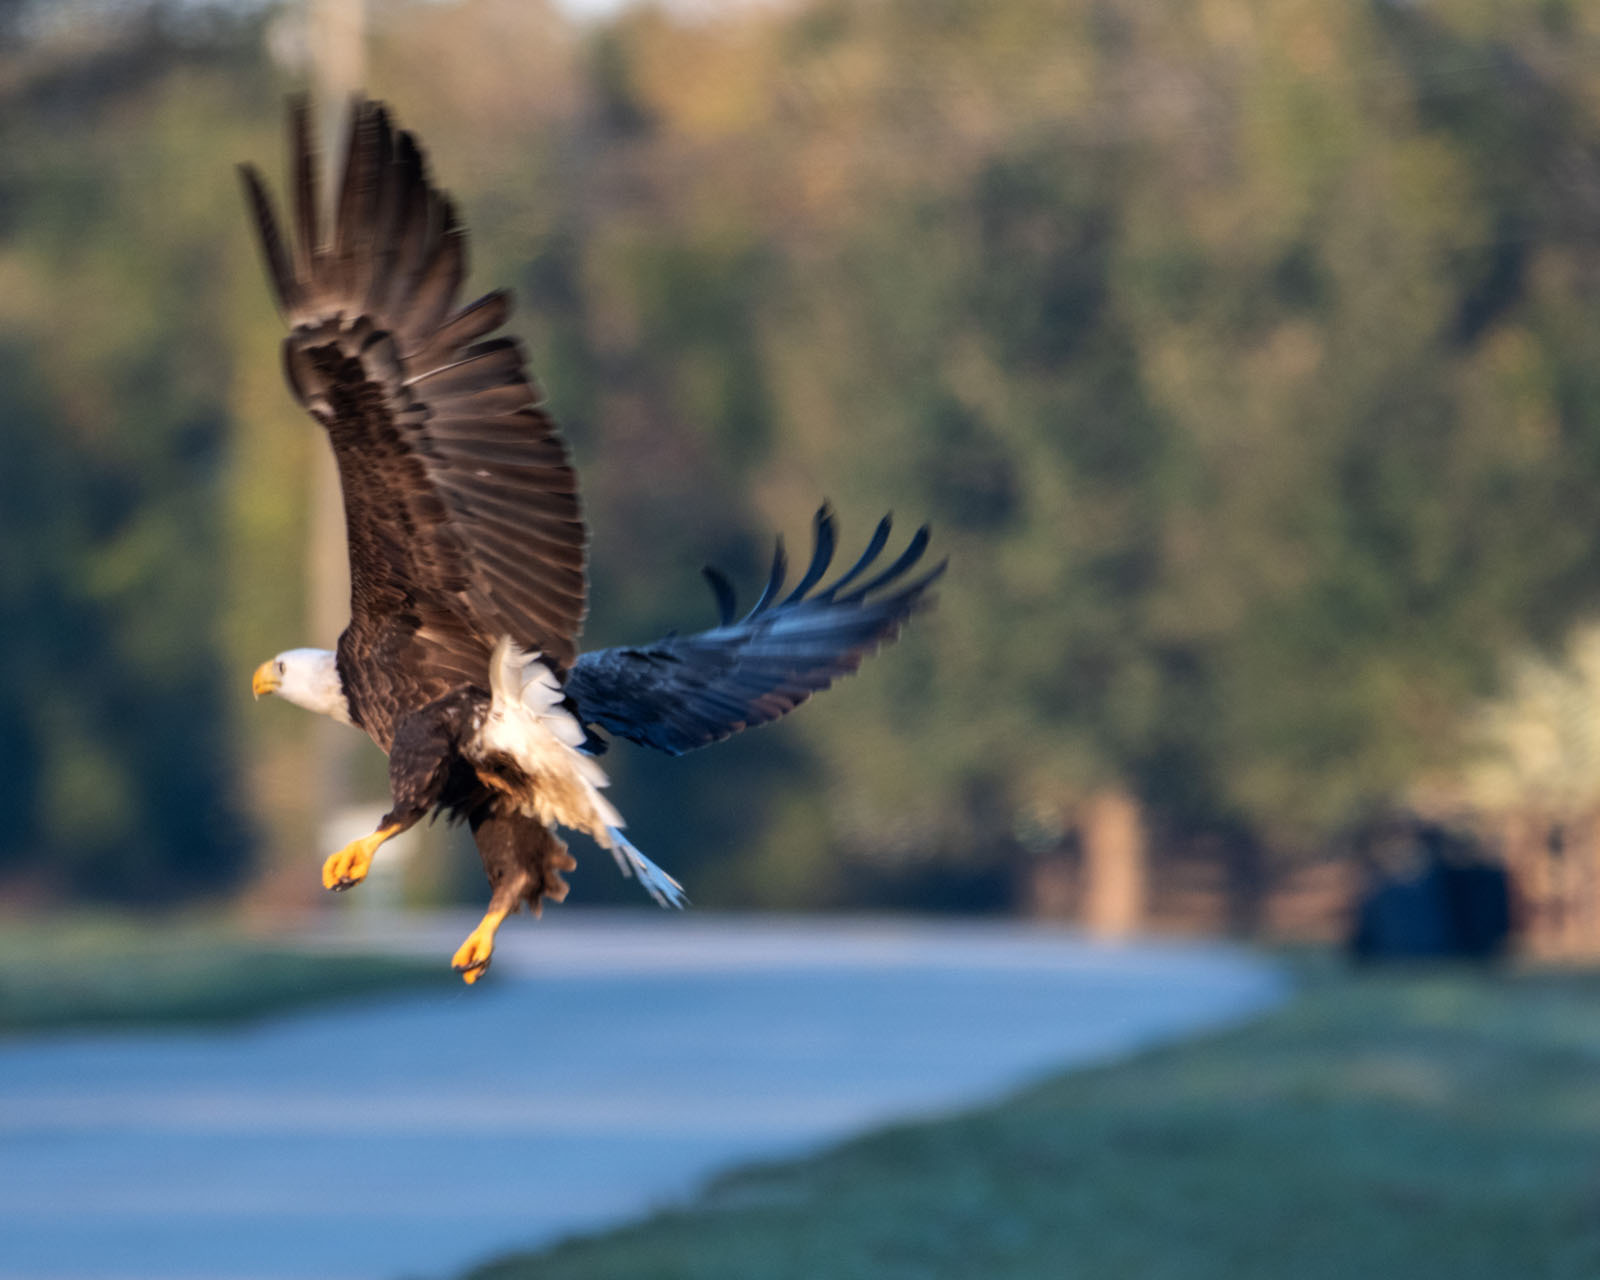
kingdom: Animalia
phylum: Chordata
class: Aves
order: Accipitriformes
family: Accipitridae
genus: Haliaeetus
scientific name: Haliaeetus leucocephalus
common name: Bald eagle
